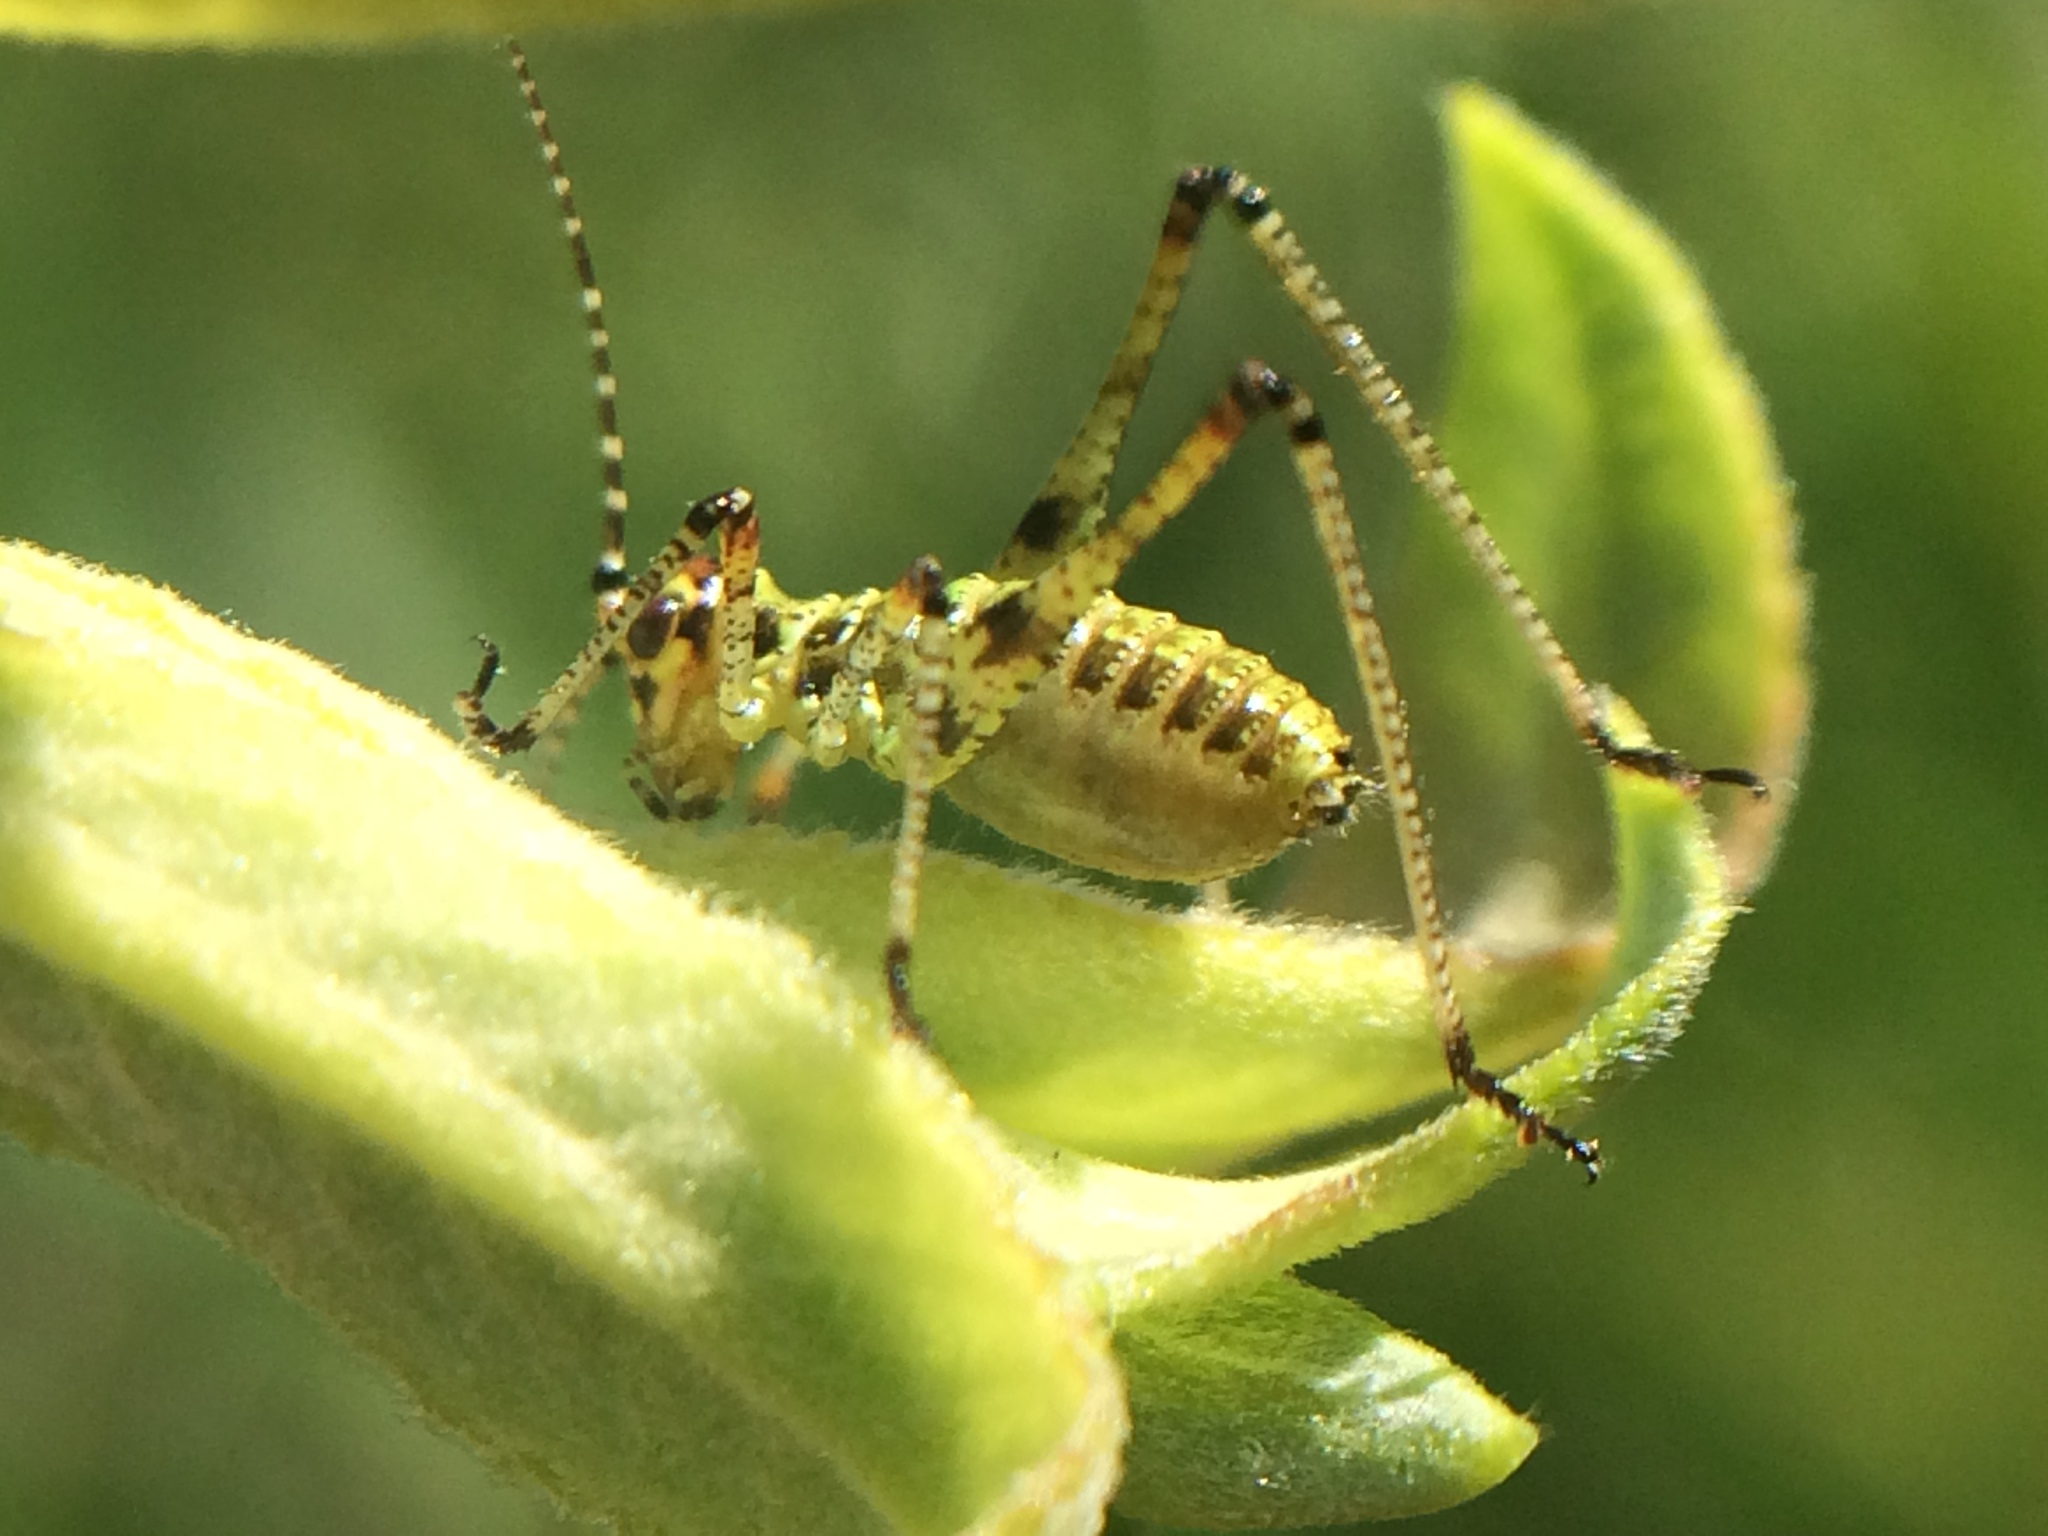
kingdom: Animalia
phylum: Arthropoda
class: Insecta
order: Orthoptera
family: Tettigoniidae
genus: Phaneroptera
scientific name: Phaneroptera nana
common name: Southern sickle bush-cricket
